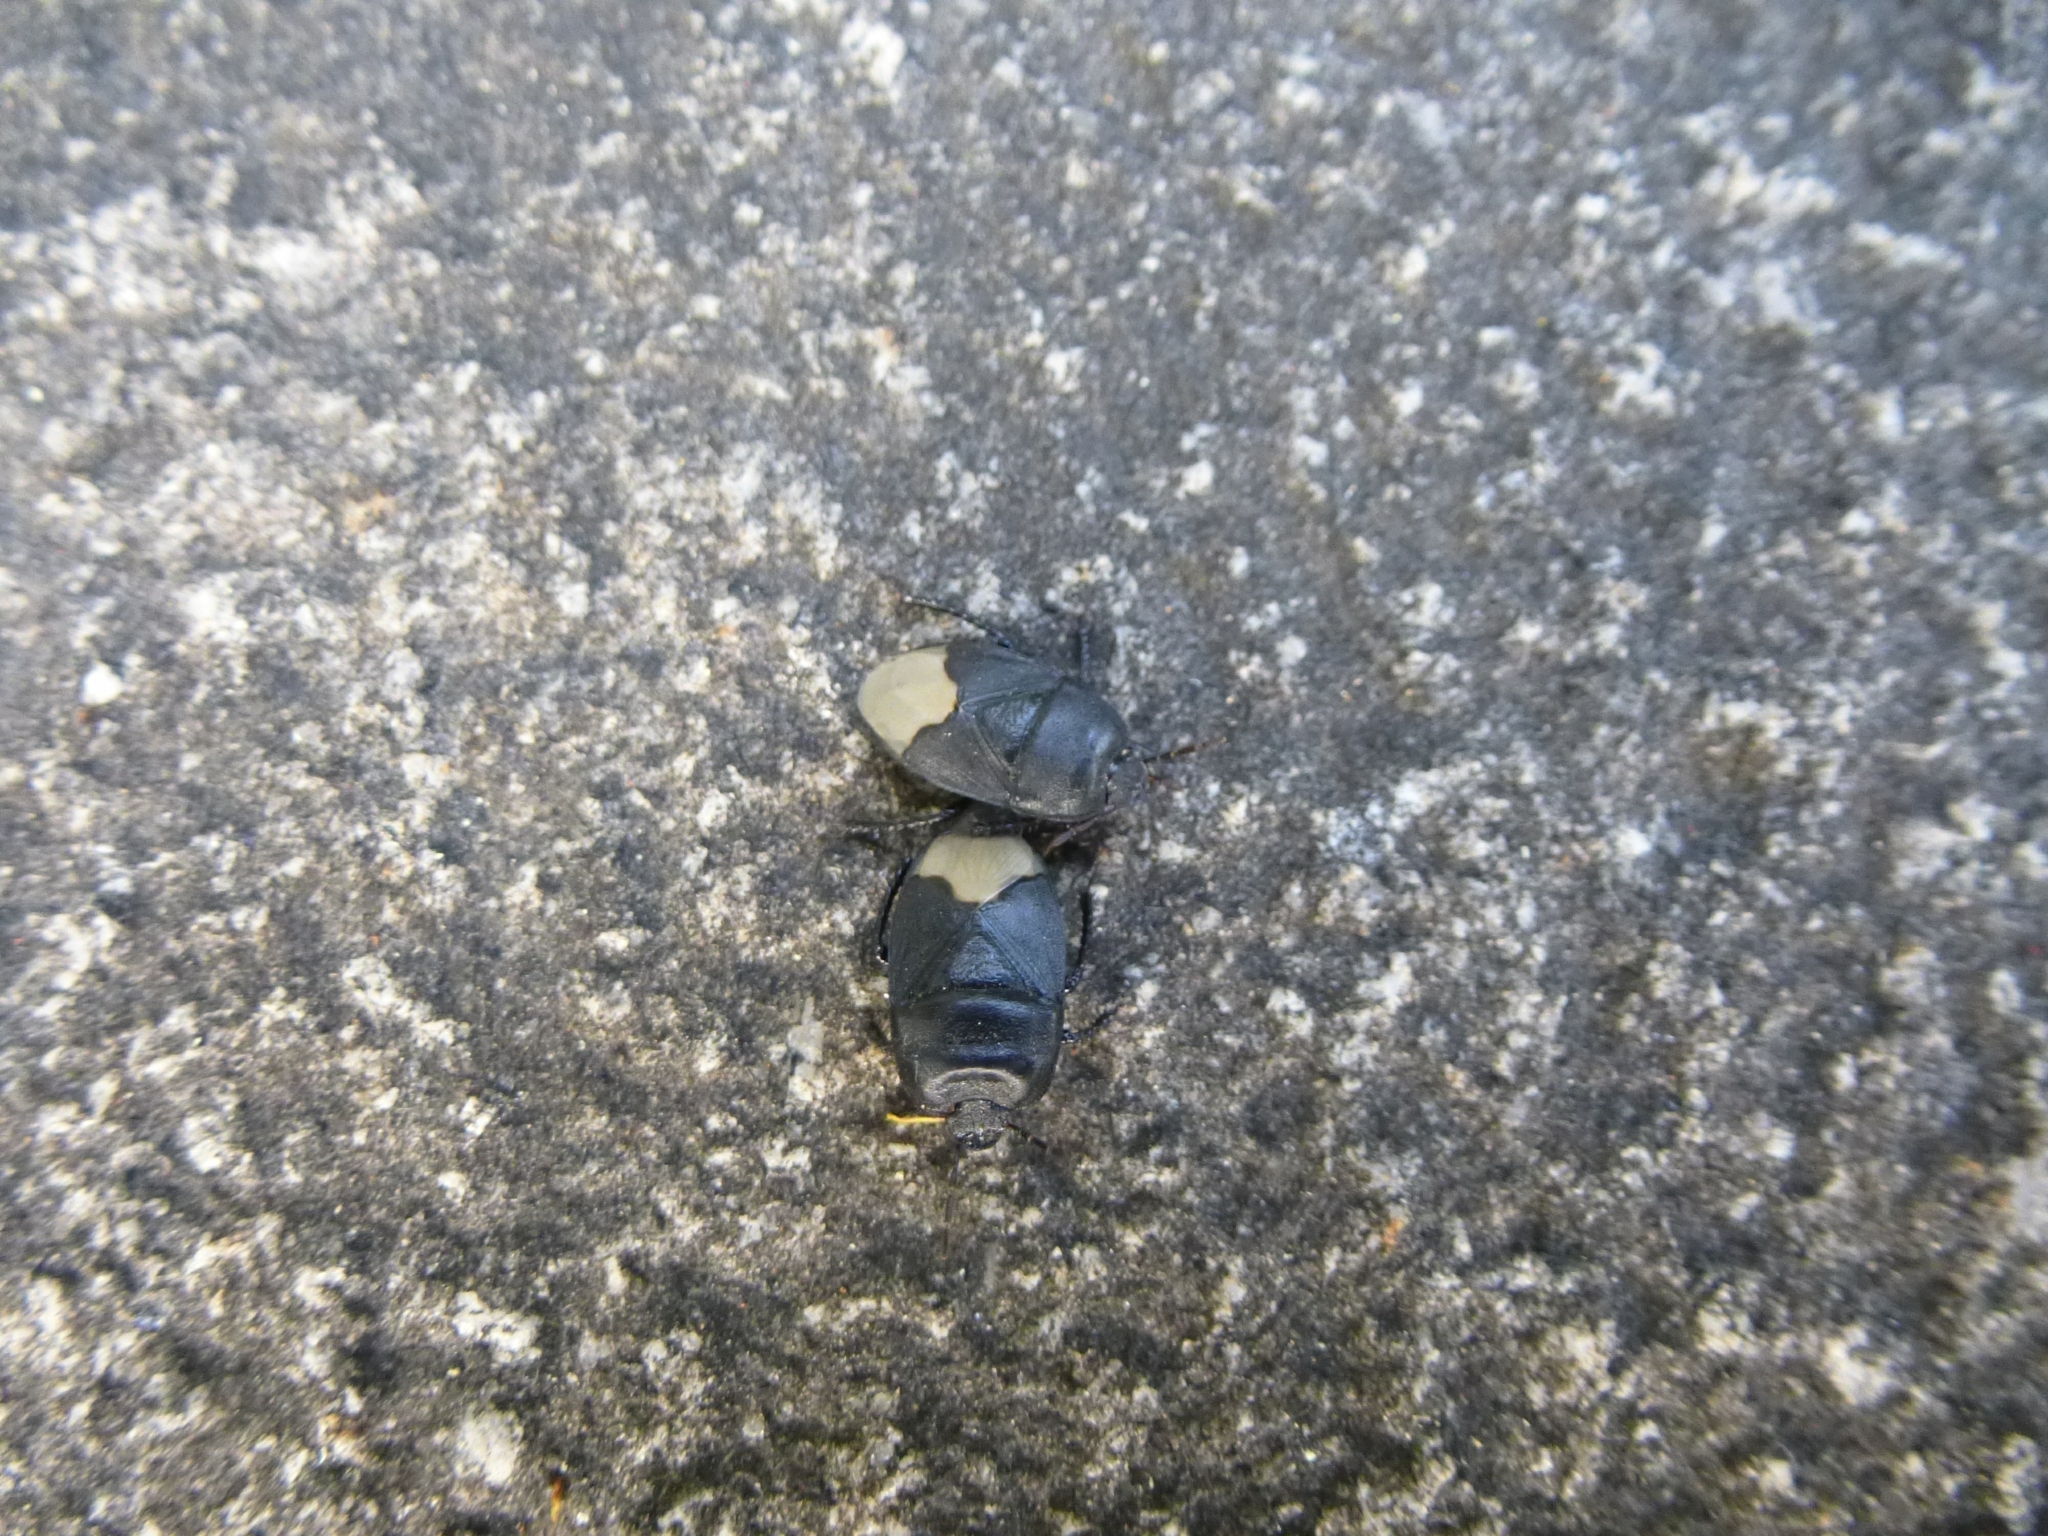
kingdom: Animalia
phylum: Arthropoda
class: Insecta
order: Hemiptera
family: Cydnidae
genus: Cydnus
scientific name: Cydnus aterrimus
